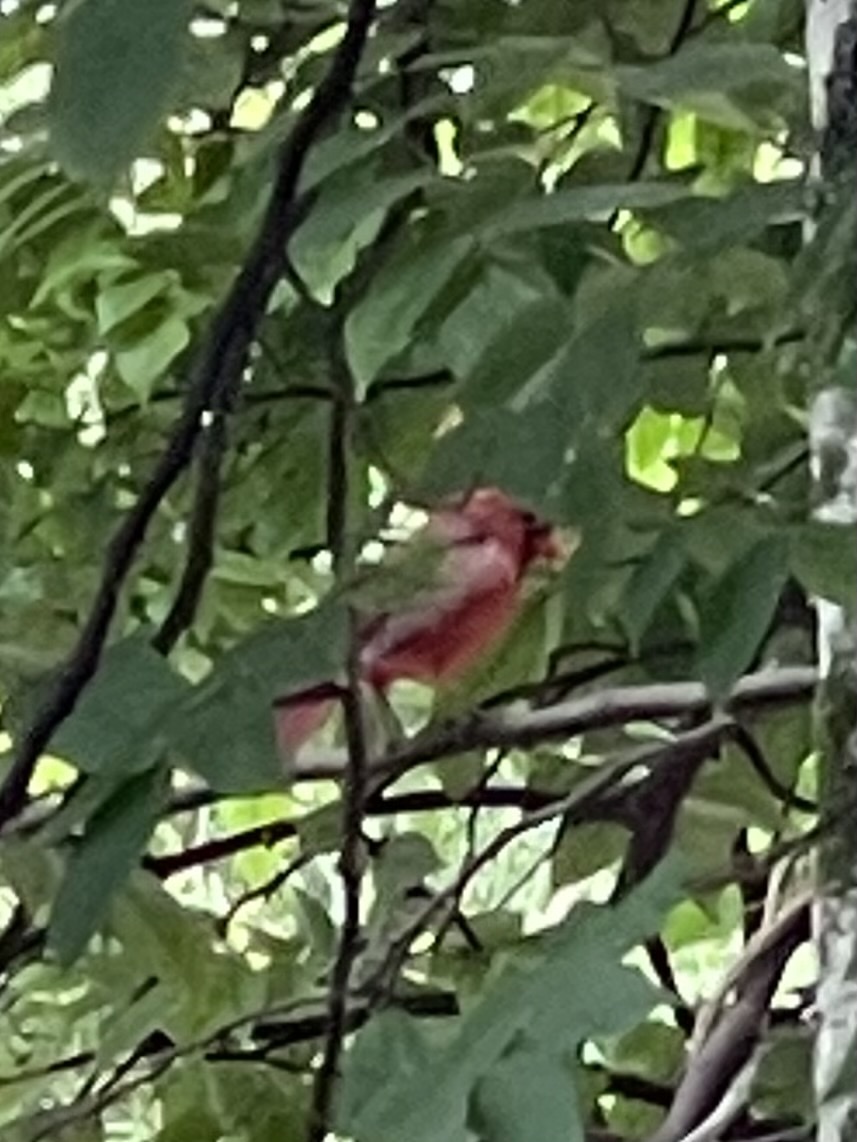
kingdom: Animalia
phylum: Chordata
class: Aves
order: Passeriformes
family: Cardinalidae
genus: Cardinalis
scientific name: Cardinalis cardinalis
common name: Northern cardinal
